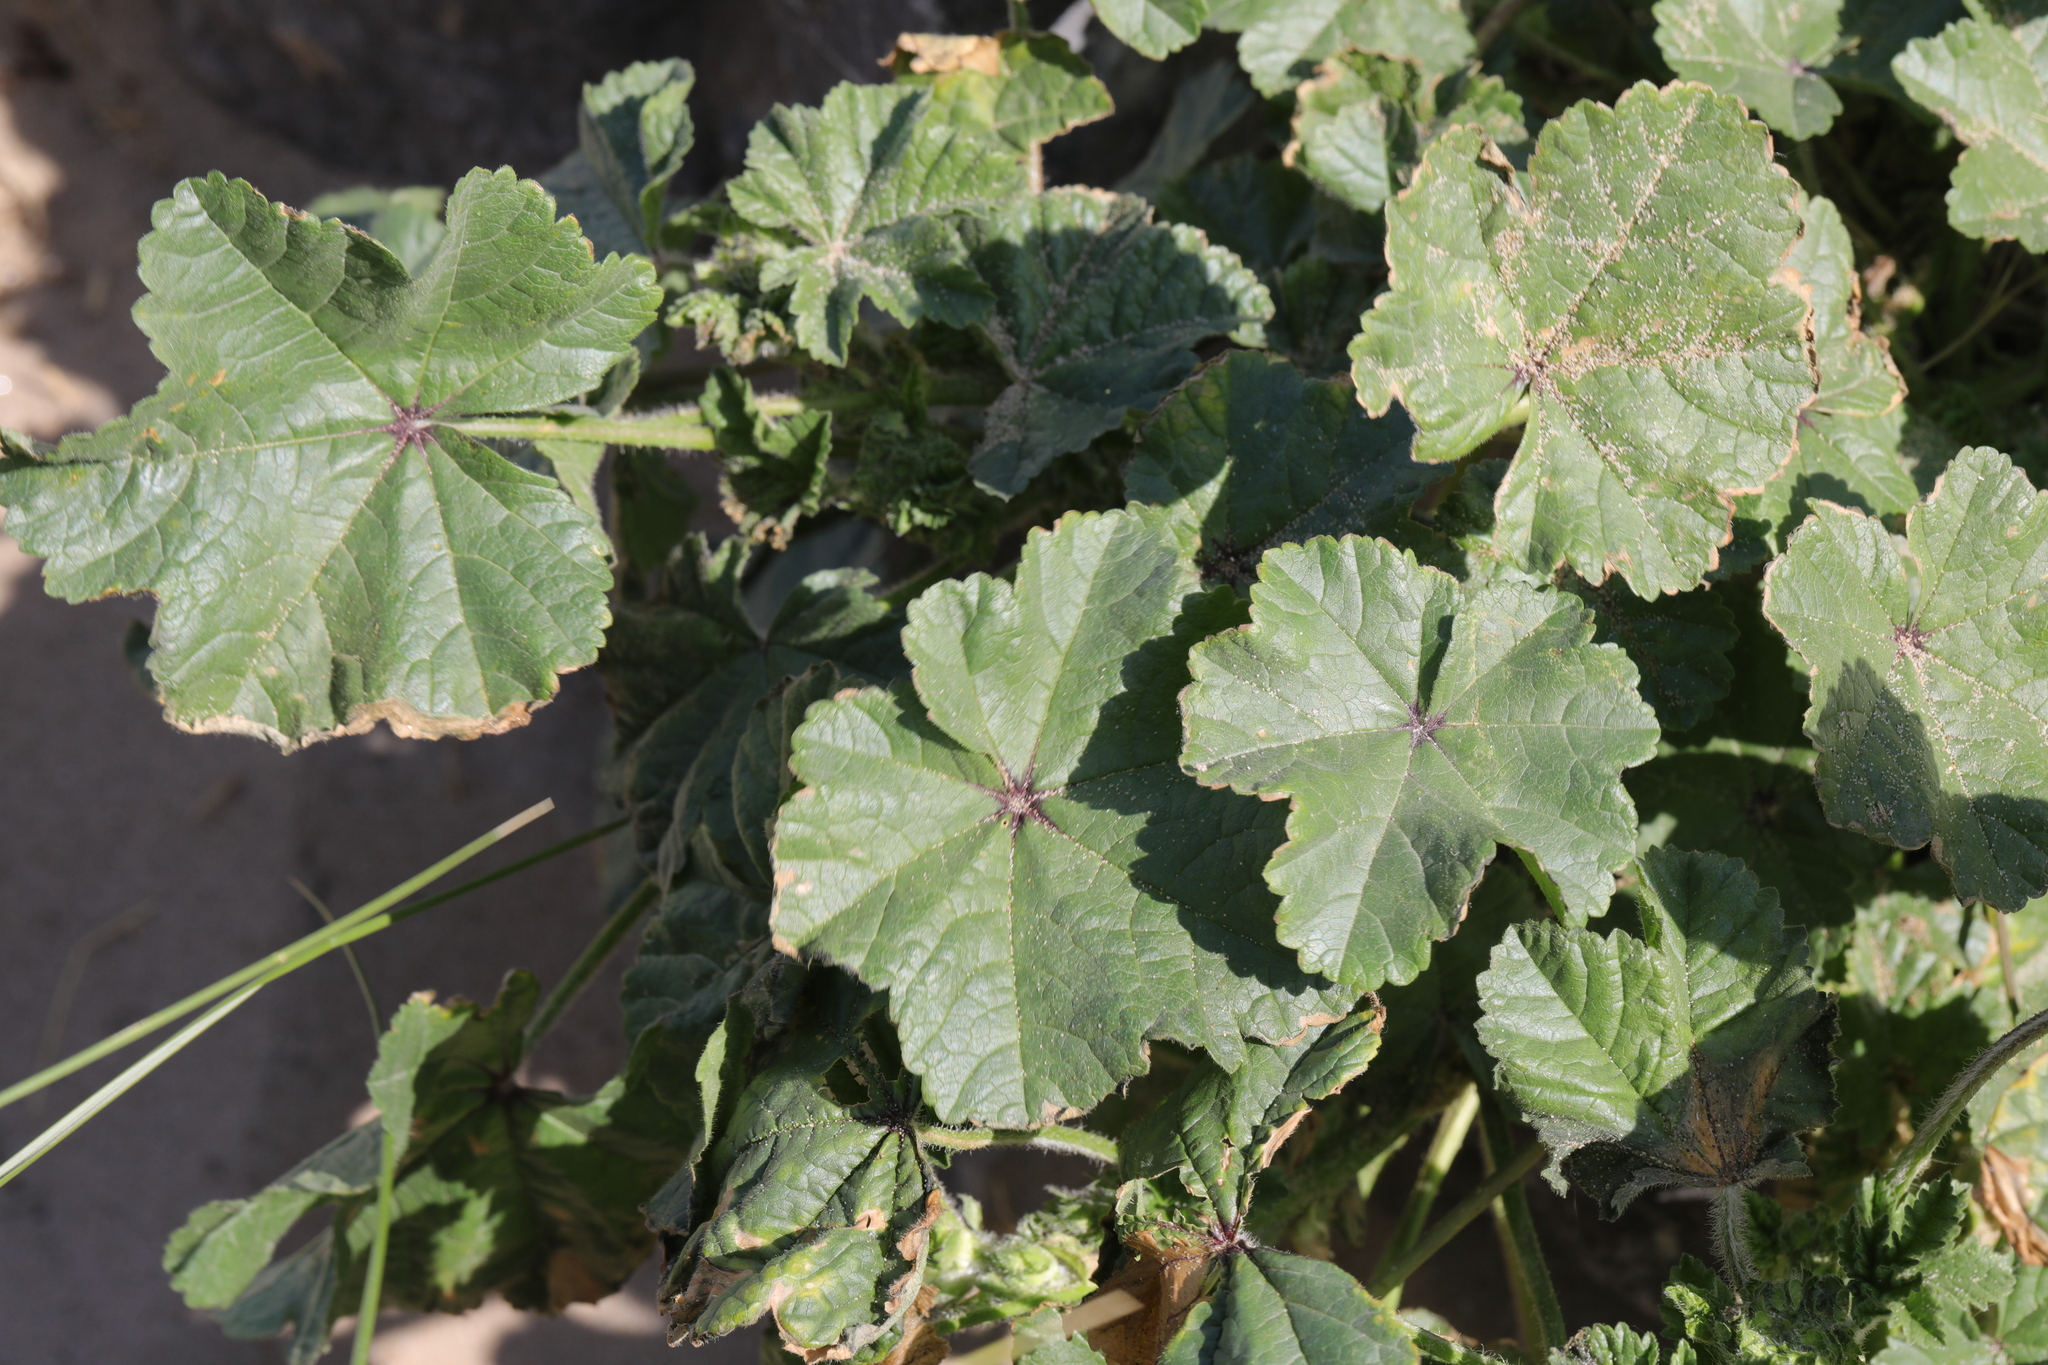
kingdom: Plantae
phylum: Tracheophyta
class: Magnoliopsida
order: Malvales
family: Malvaceae
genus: Malva
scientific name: Malva sylvestris
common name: Common mallow
